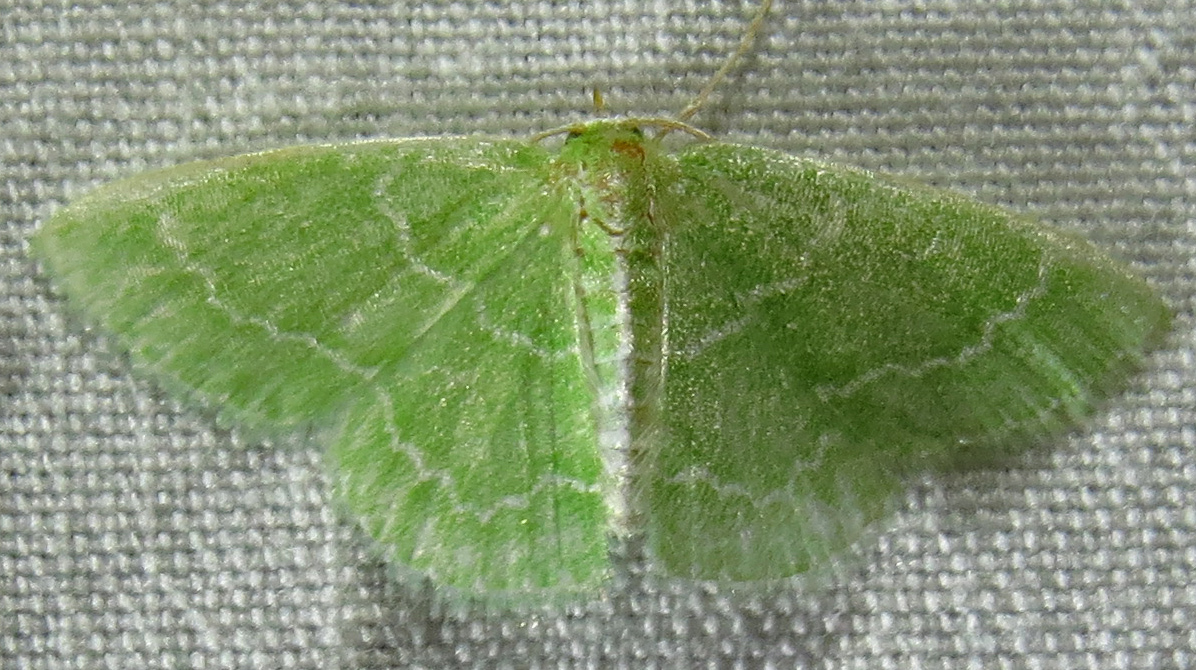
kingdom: Animalia
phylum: Arthropoda
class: Insecta
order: Lepidoptera
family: Geometridae
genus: Synchlora
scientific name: Synchlora aerata
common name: Wavy-lined emerald
